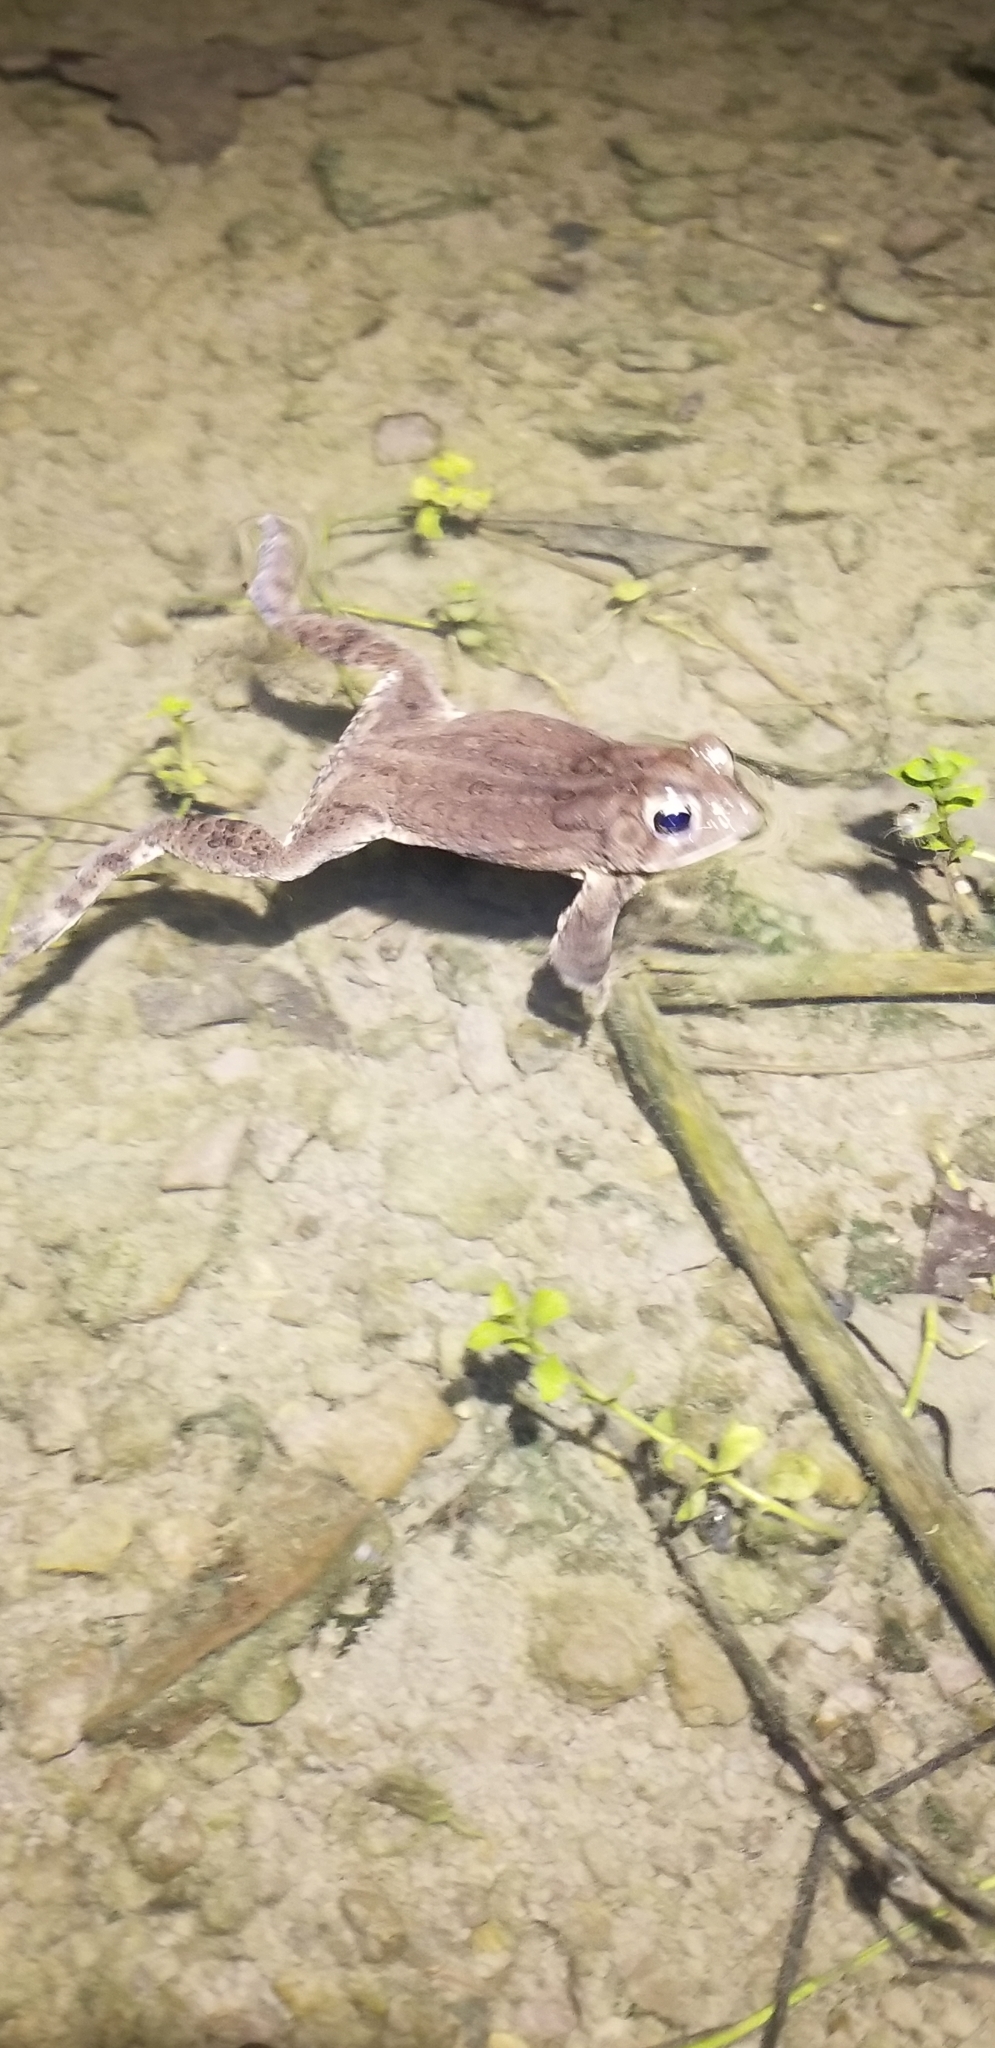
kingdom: Animalia
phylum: Chordata
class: Amphibia
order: Anura
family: Bufonidae
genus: Anaxyrus
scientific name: Anaxyrus americanus
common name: American toad
